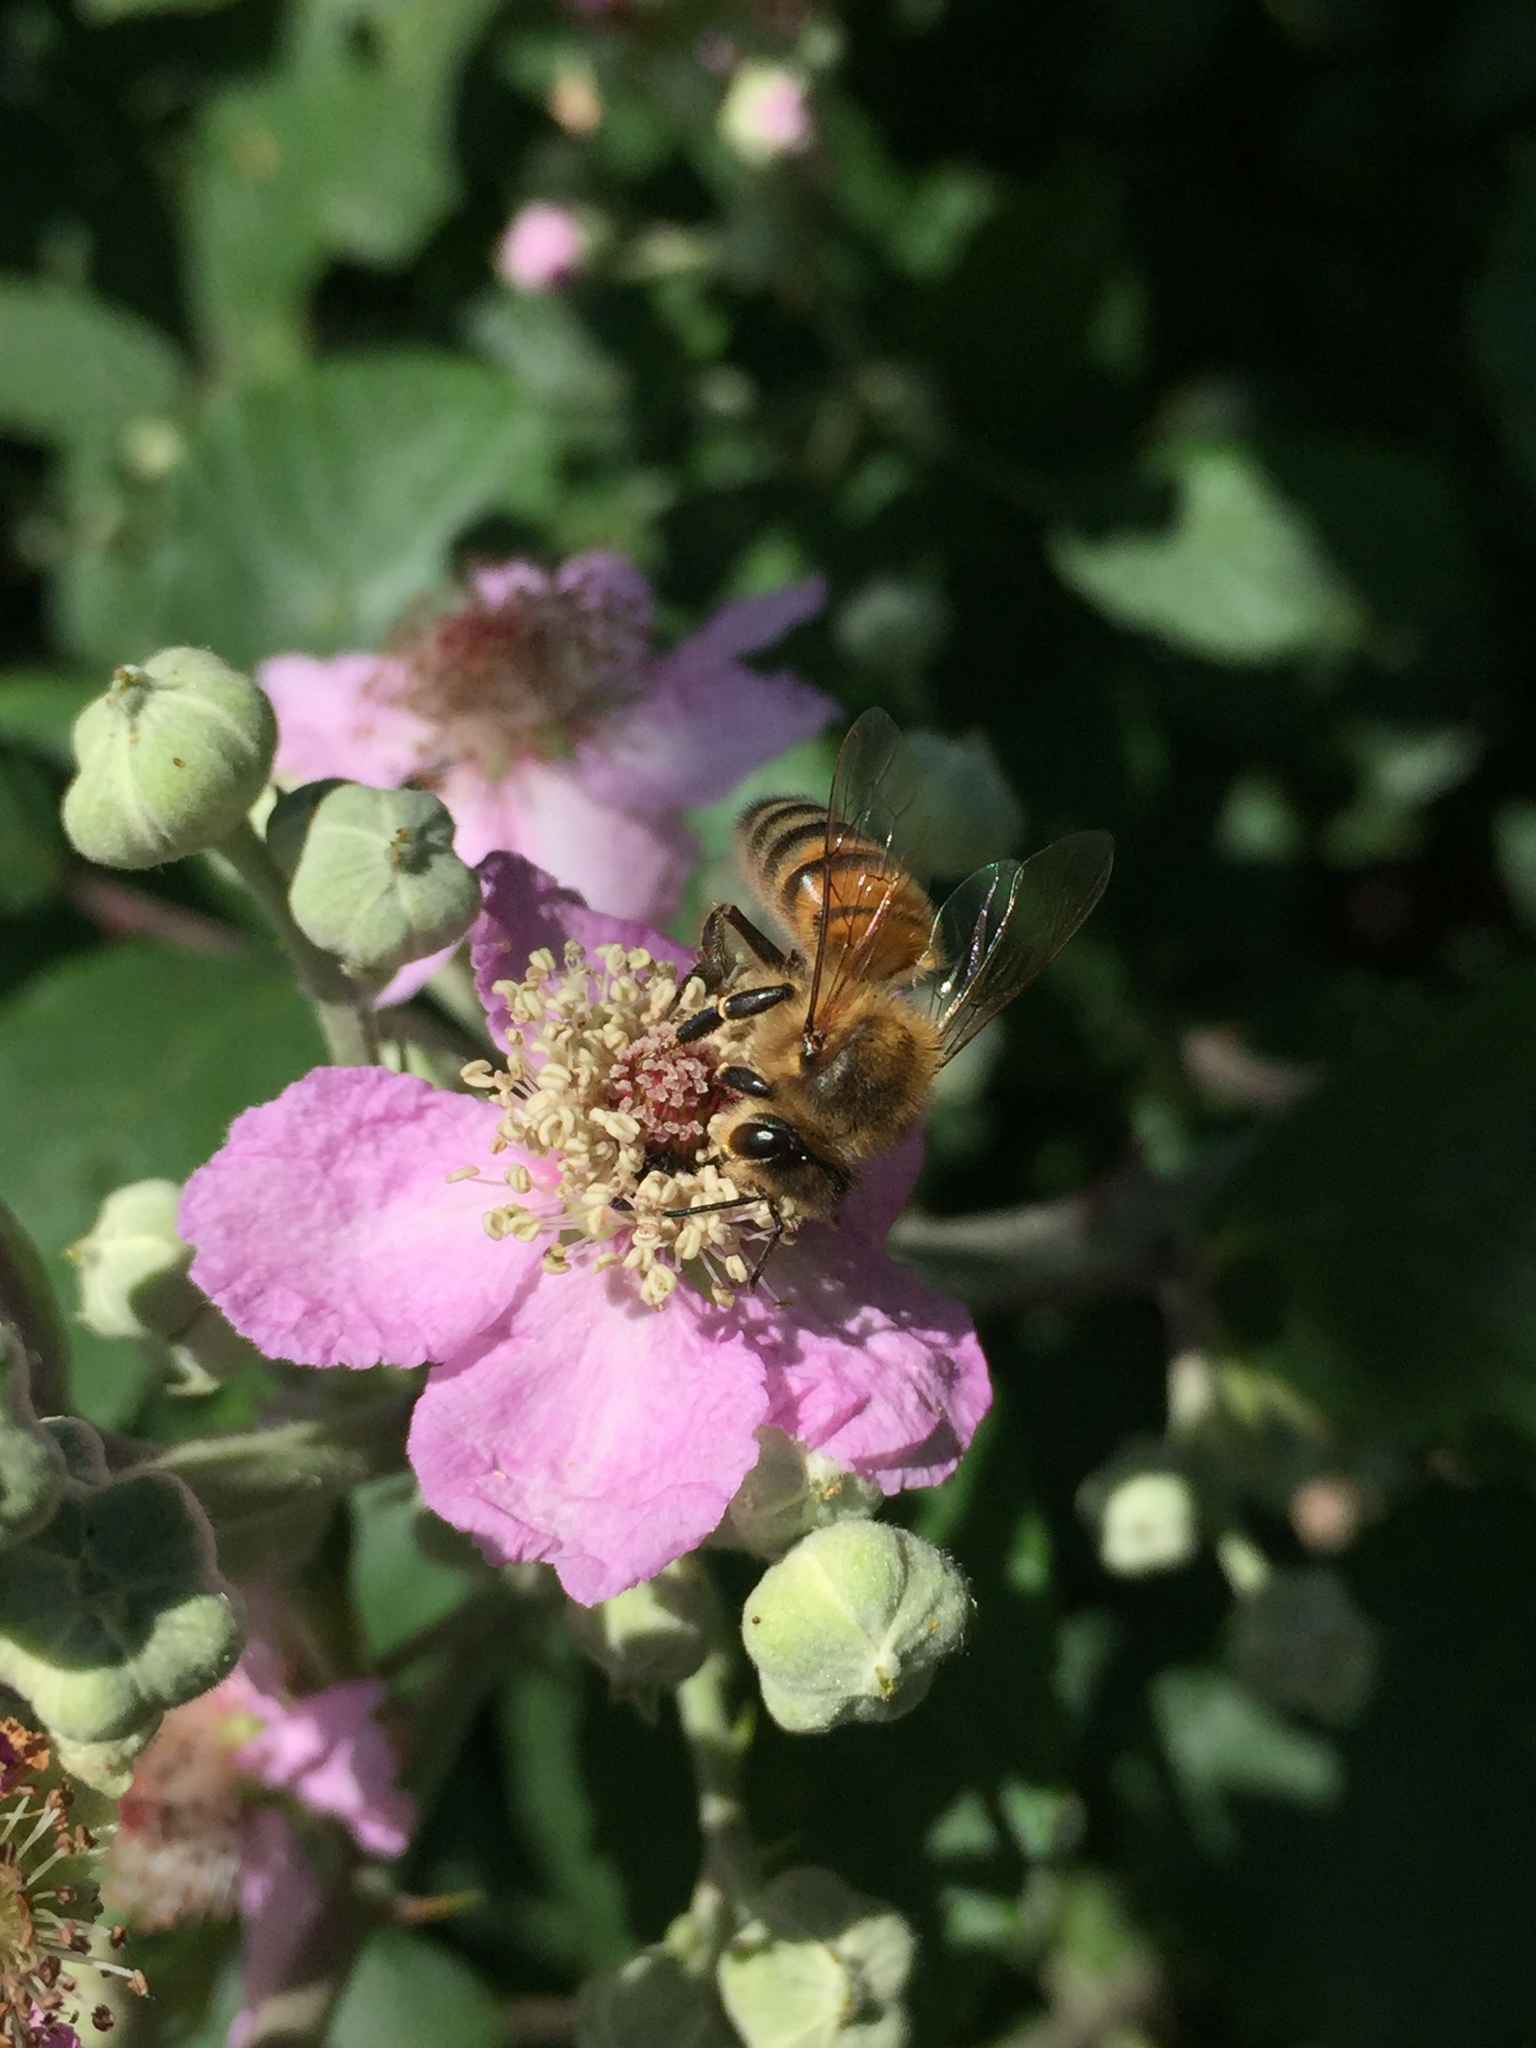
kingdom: Animalia
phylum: Arthropoda
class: Insecta
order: Hymenoptera
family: Apidae
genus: Apis
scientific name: Apis mellifera
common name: Honey bee
